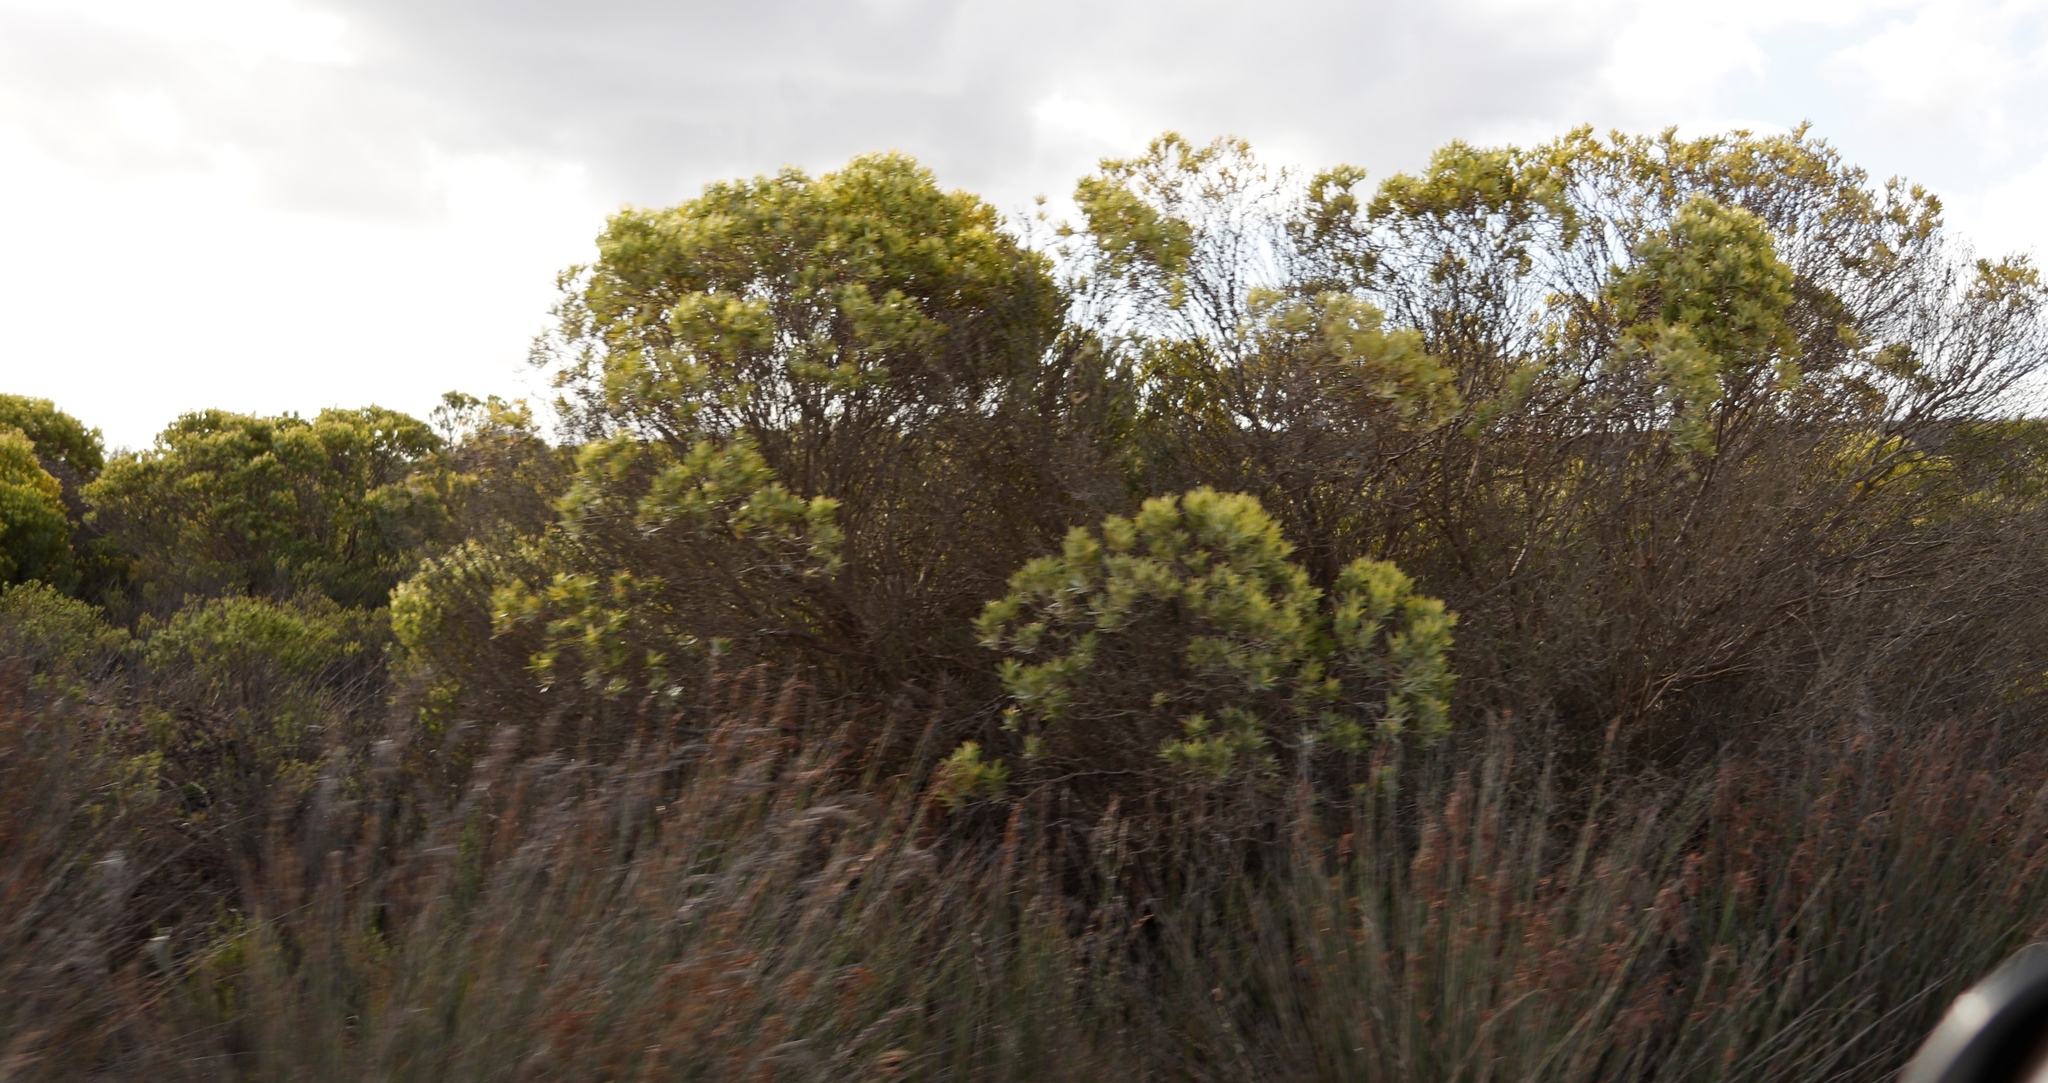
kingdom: Plantae
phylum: Tracheophyta
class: Magnoliopsida
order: Proteales
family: Proteaceae
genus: Leucadendron
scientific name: Leucadendron meridianum
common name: Limestone conebush
